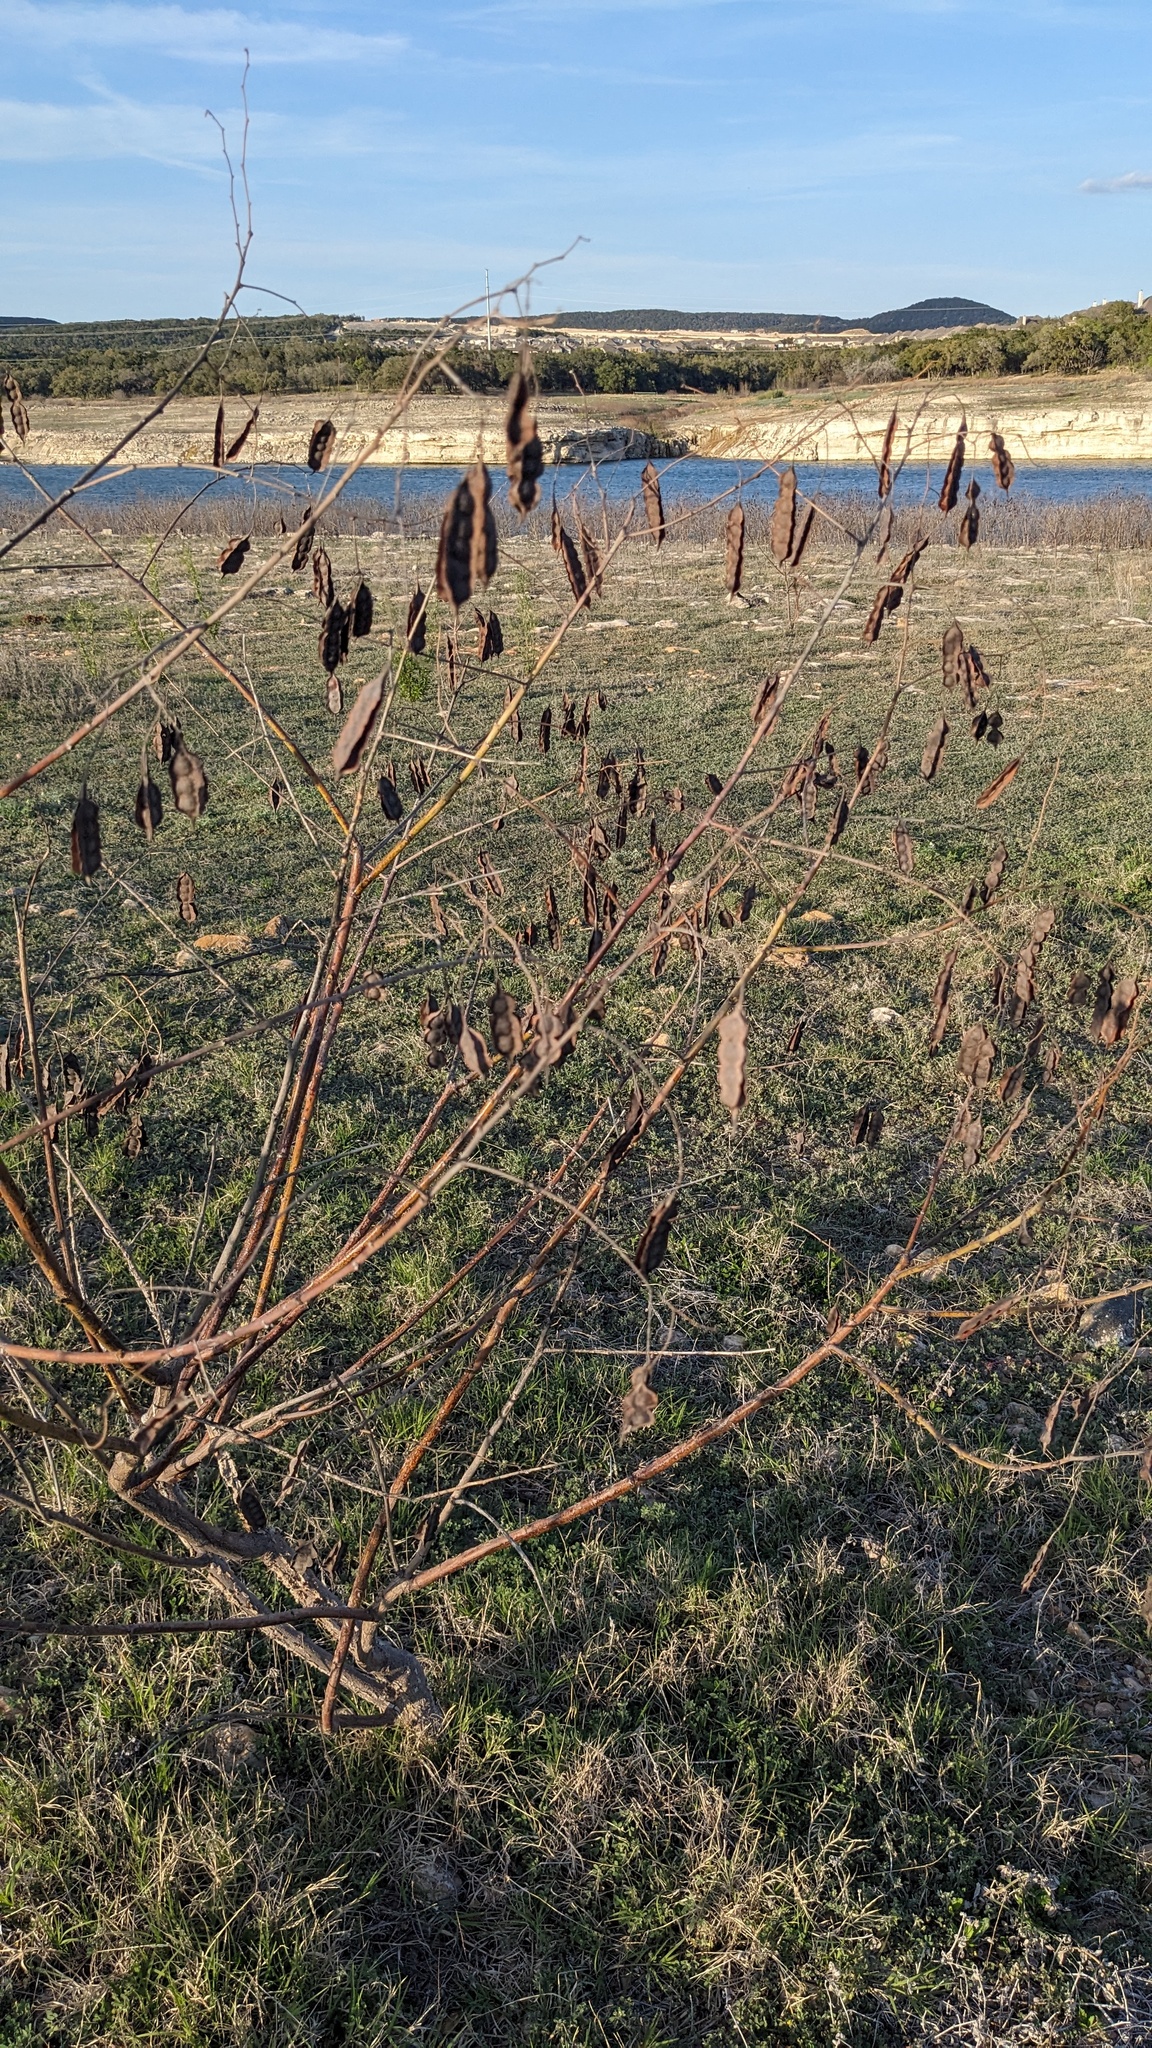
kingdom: Plantae
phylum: Tracheophyta
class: Magnoliopsida
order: Fabales
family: Fabaceae
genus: Sesbania
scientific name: Sesbania drummondii
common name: Poison-bean
